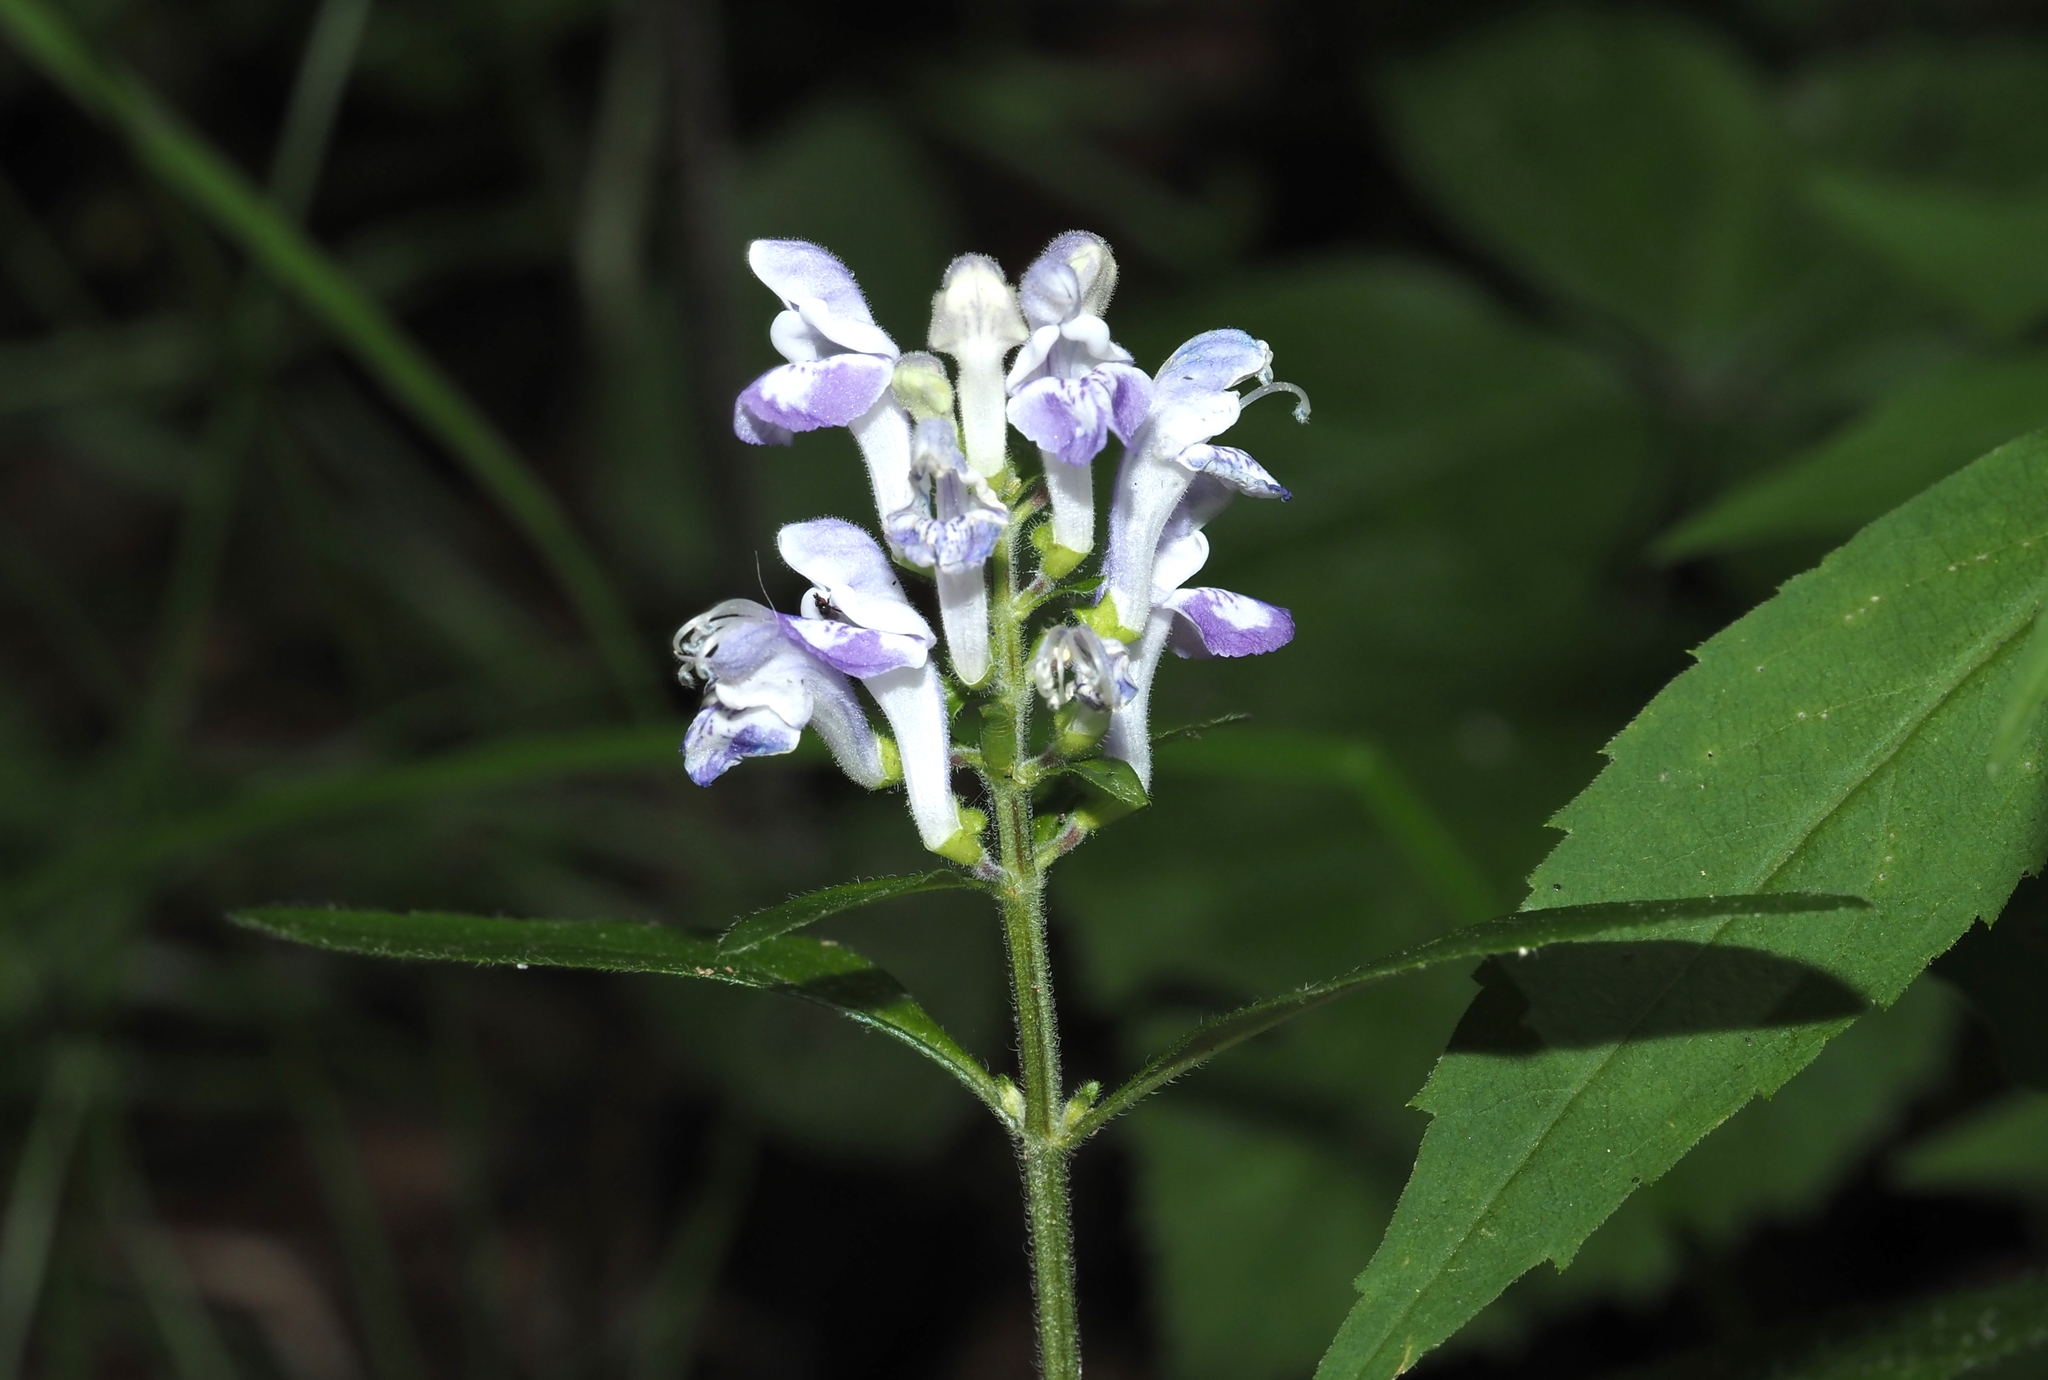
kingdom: Plantae
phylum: Tracheophyta
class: Magnoliopsida
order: Lamiales
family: Lamiaceae
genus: Scutellaria
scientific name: Scutellaria elliptica
